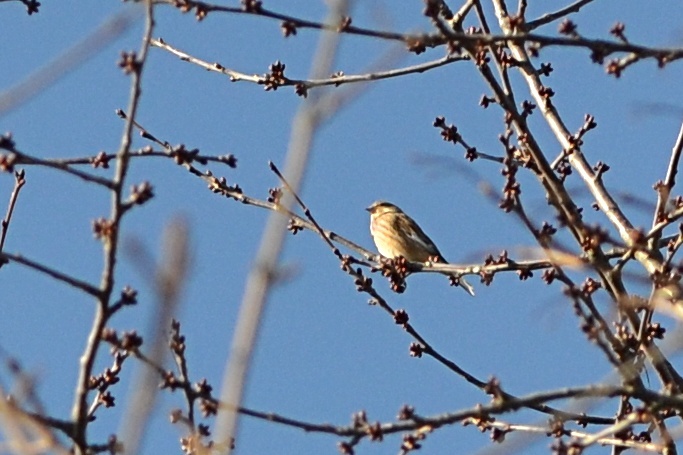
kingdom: Animalia
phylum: Chordata
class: Aves
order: Passeriformes
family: Fringillidae
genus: Linaria
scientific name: Linaria cannabina
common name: Common linnet
